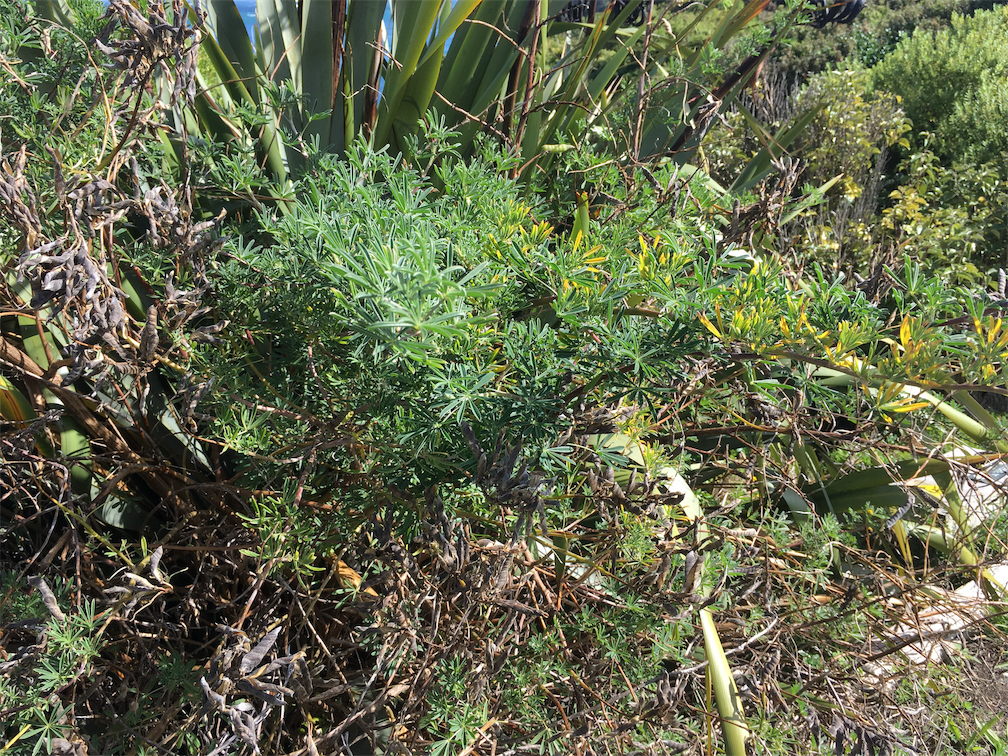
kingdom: Plantae
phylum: Tracheophyta
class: Magnoliopsida
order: Fabales
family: Fabaceae
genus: Lupinus
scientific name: Lupinus arboreus
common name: Yellow bush lupine
